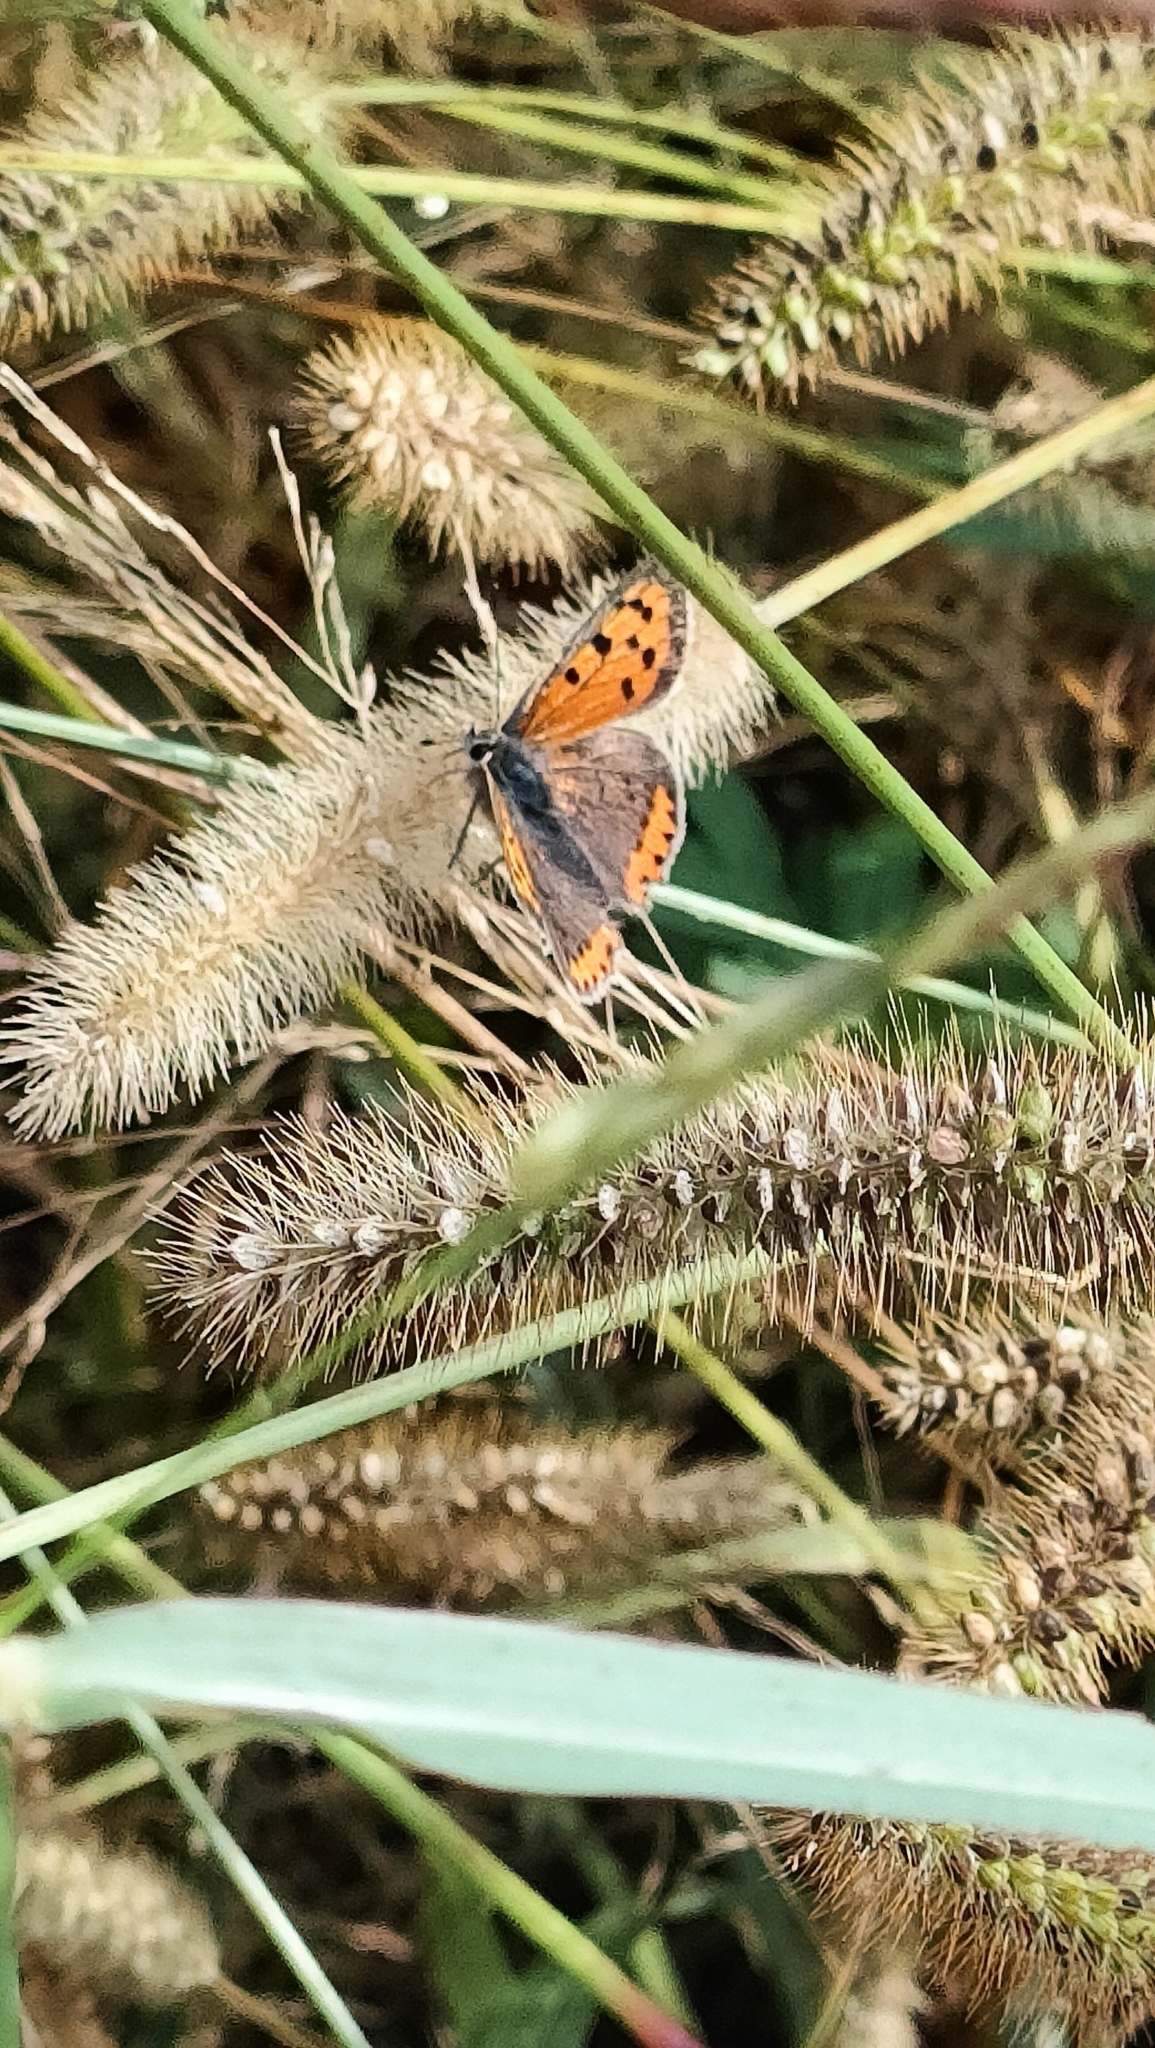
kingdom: Animalia
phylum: Arthropoda
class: Insecta
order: Lepidoptera
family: Lycaenidae
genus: Lycaena
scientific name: Lycaena phlaeas
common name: Small copper
